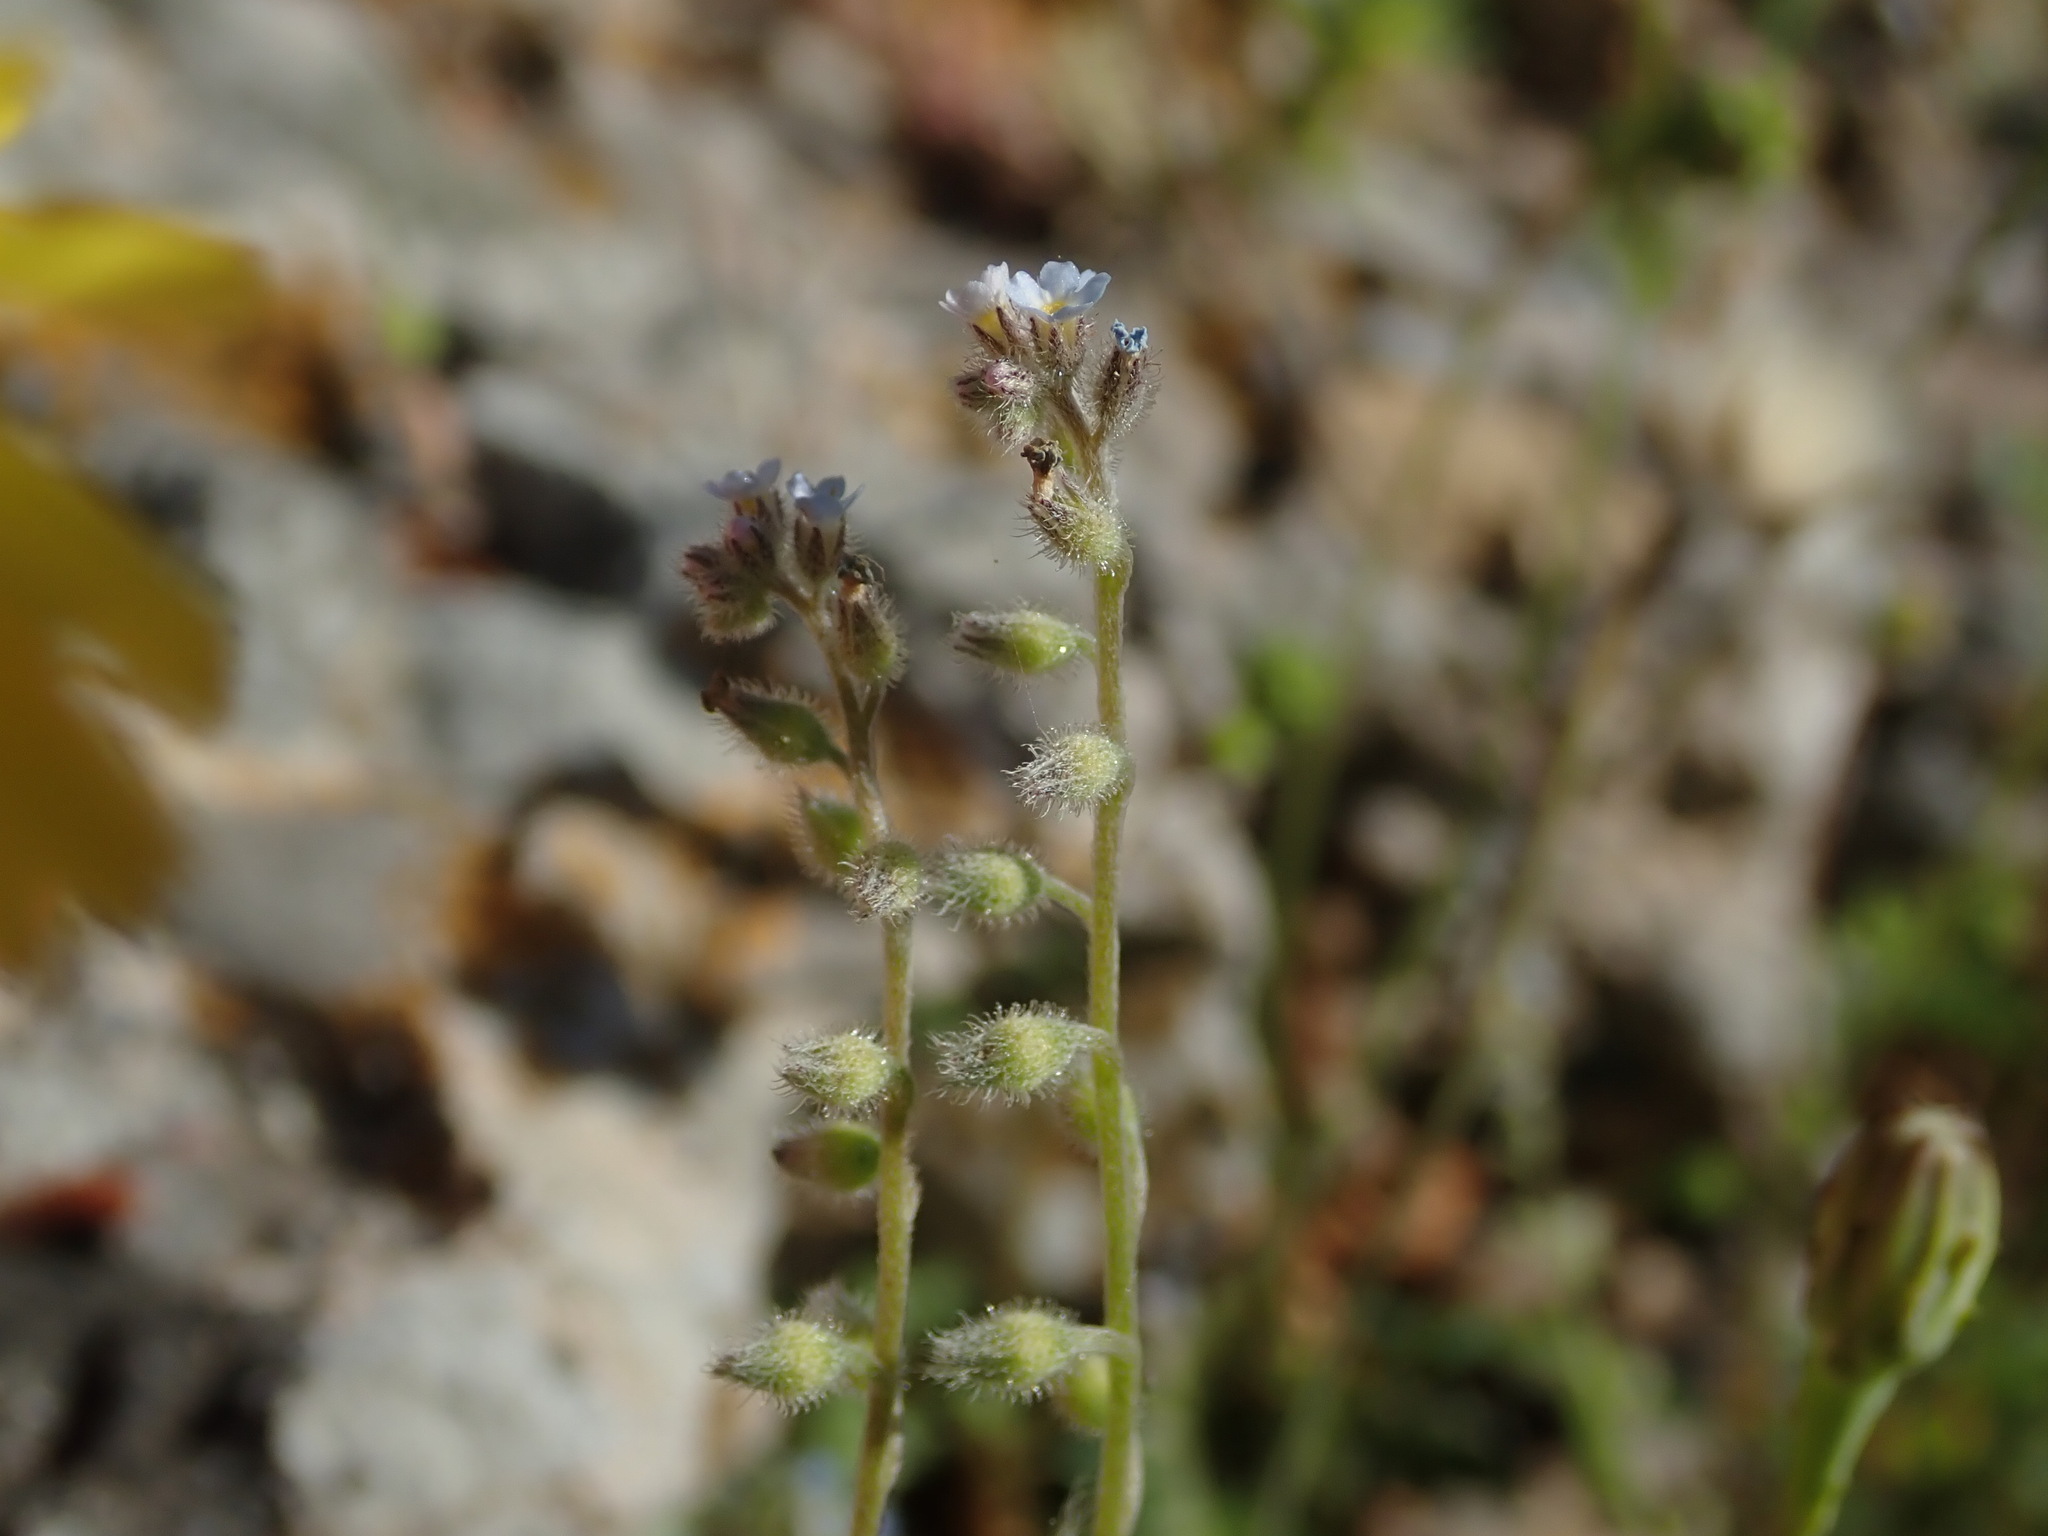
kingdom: Plantae
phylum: Tracheophyta
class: Magnoliopsida
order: Boraginales
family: Boraginaceae
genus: Myosotis
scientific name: Myosotis arvensis
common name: Field forget-me-not
